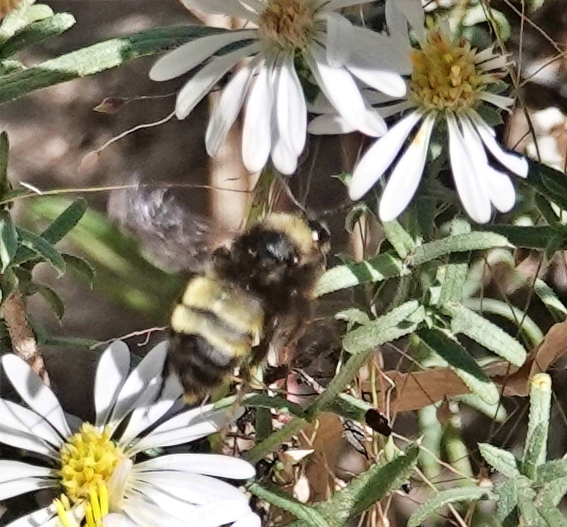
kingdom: Animalia
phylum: Arthropoda
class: Insecta
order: Hymenoptera
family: Apidae
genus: Bombus
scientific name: Bombus pensylvanicus
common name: Bumble bee
